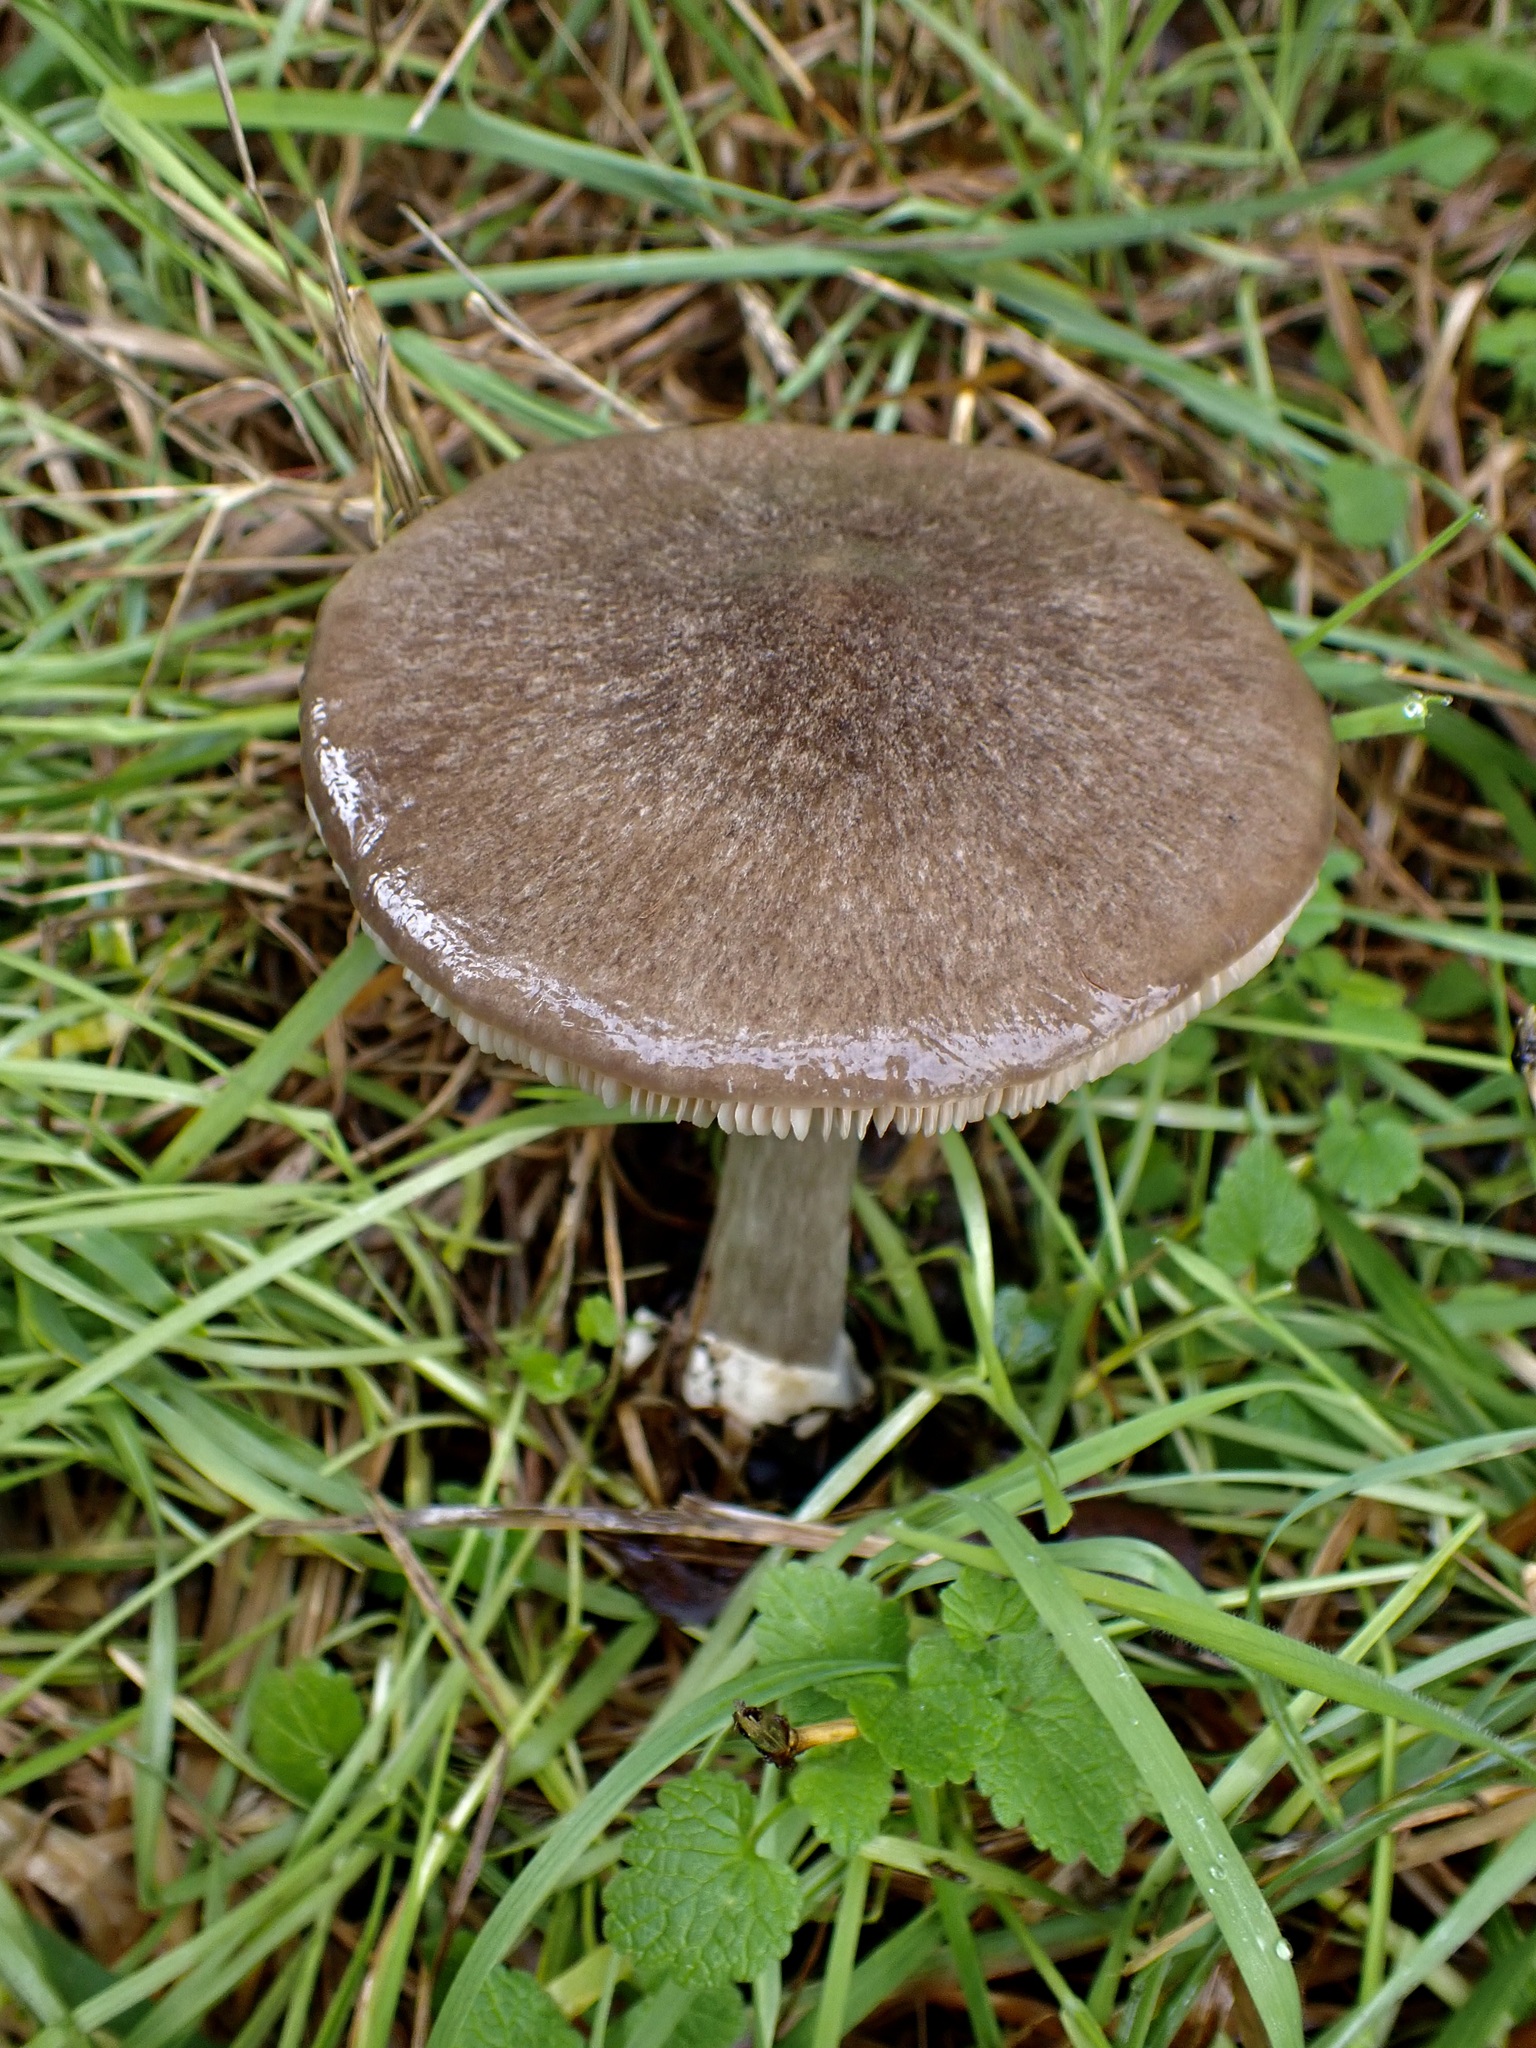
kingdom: Fungi
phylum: Basidiomycota
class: Agaricomycetes
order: Agaricales
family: Pluteaceae
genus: Volvopluteus
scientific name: Volvopluteus gloiocephalus
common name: Stubble rosegill
